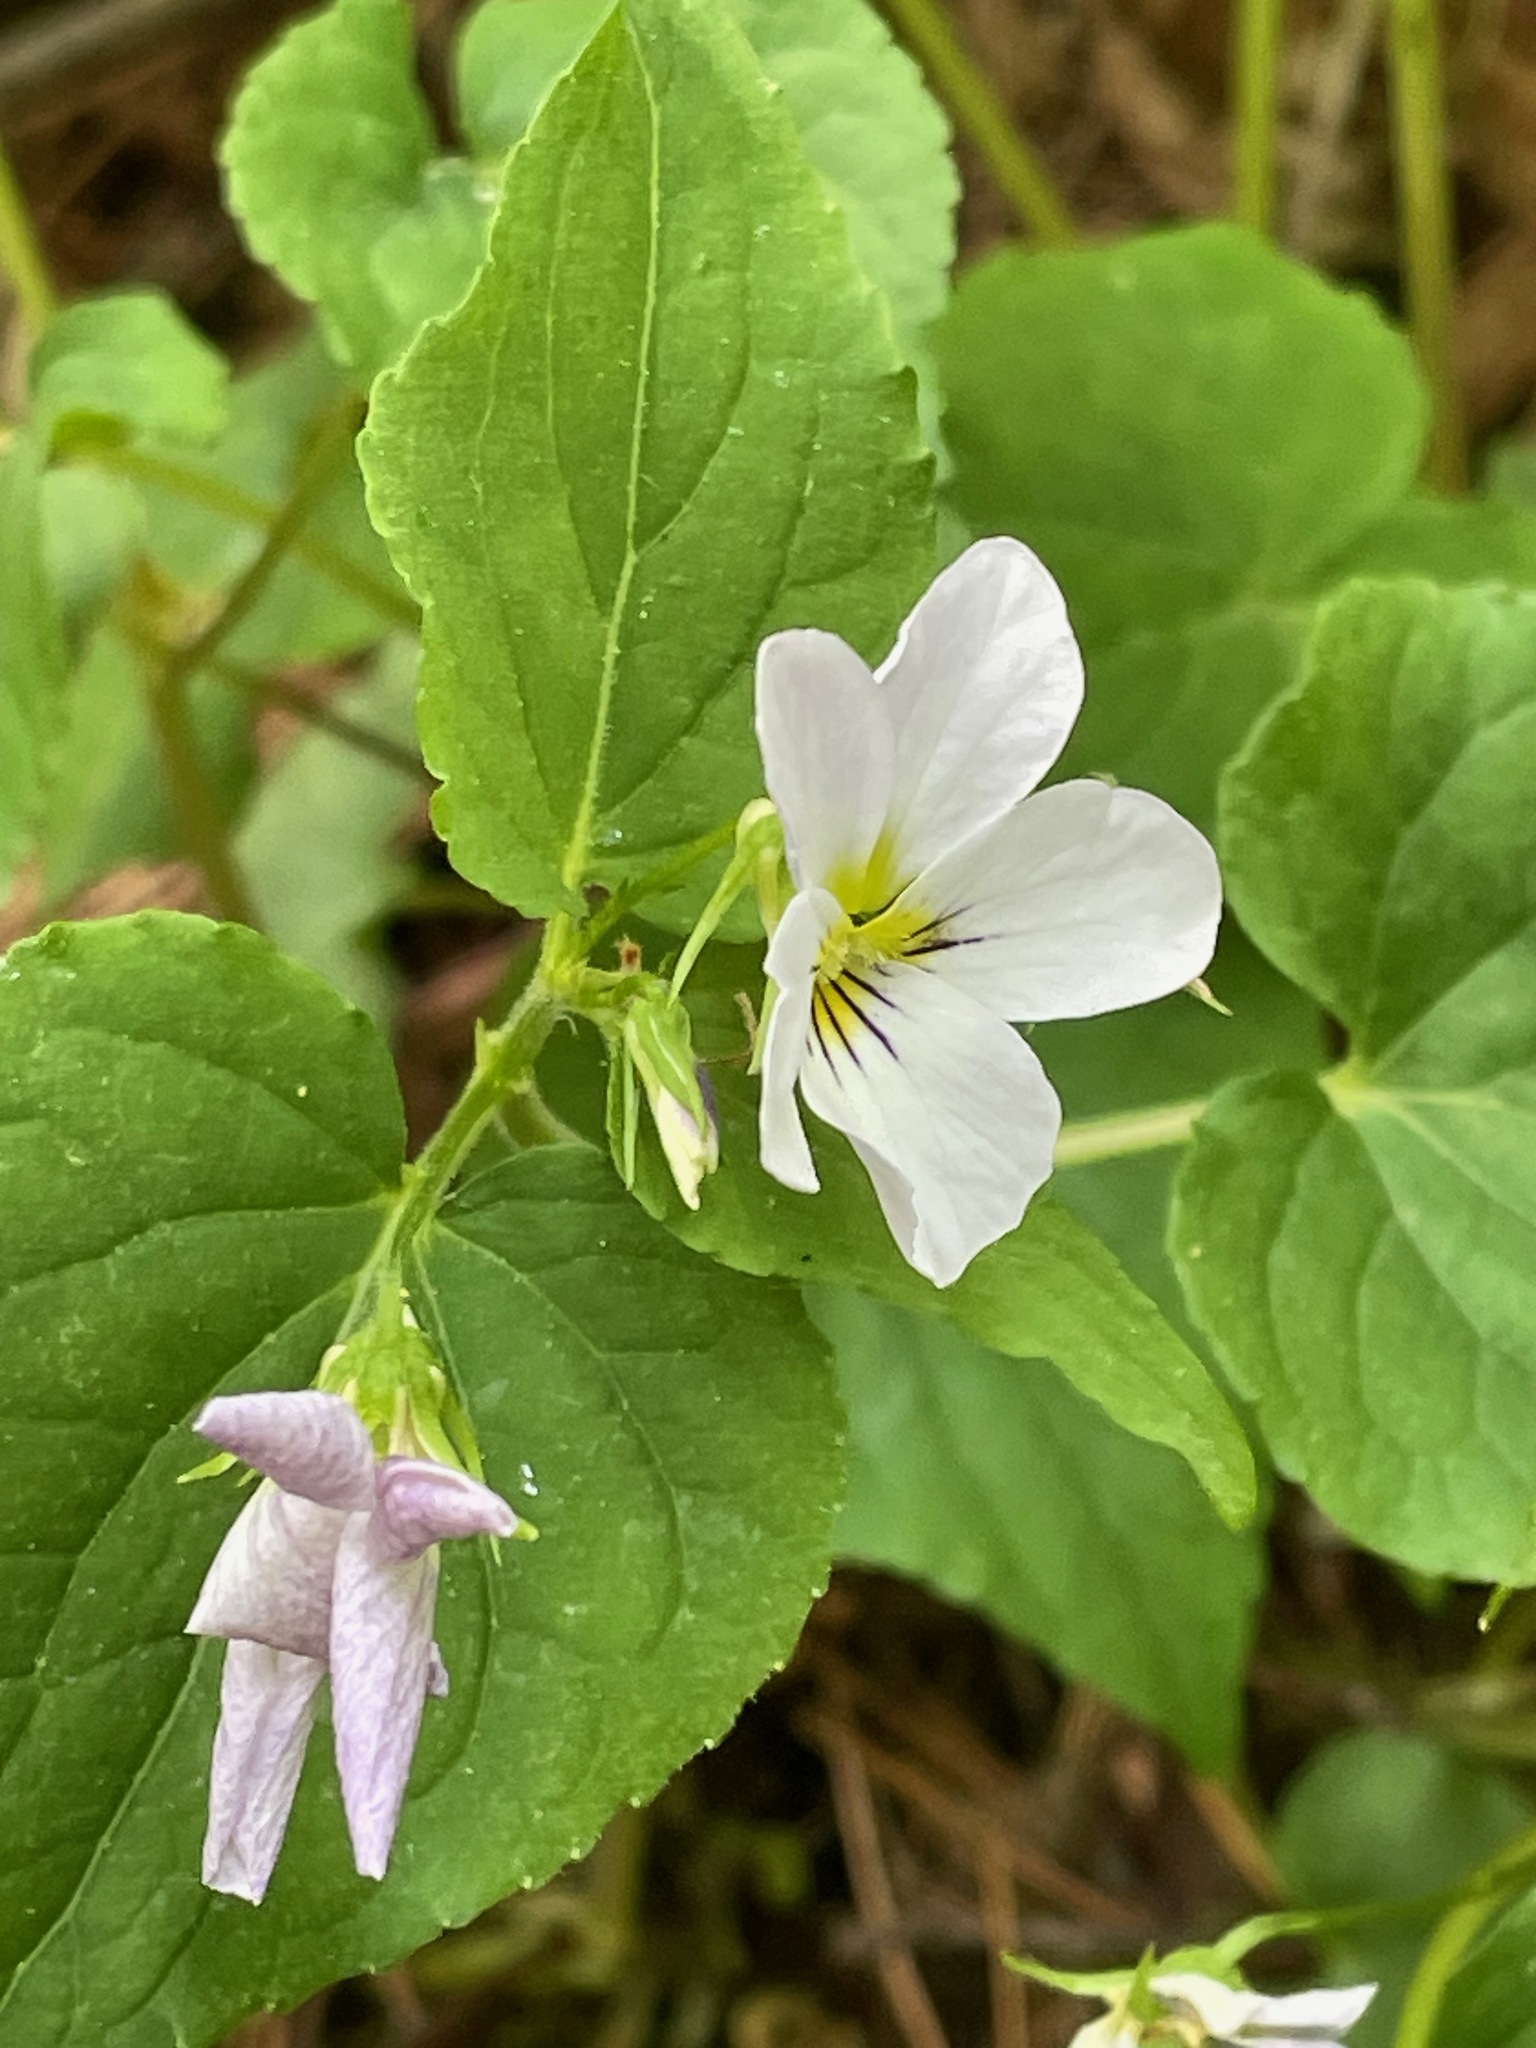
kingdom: Plantae
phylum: Tracheophyta
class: Magnoliopsida
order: Malpighiales
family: Violaceae
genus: Viola
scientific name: Viola canadensis
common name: Canada violet
